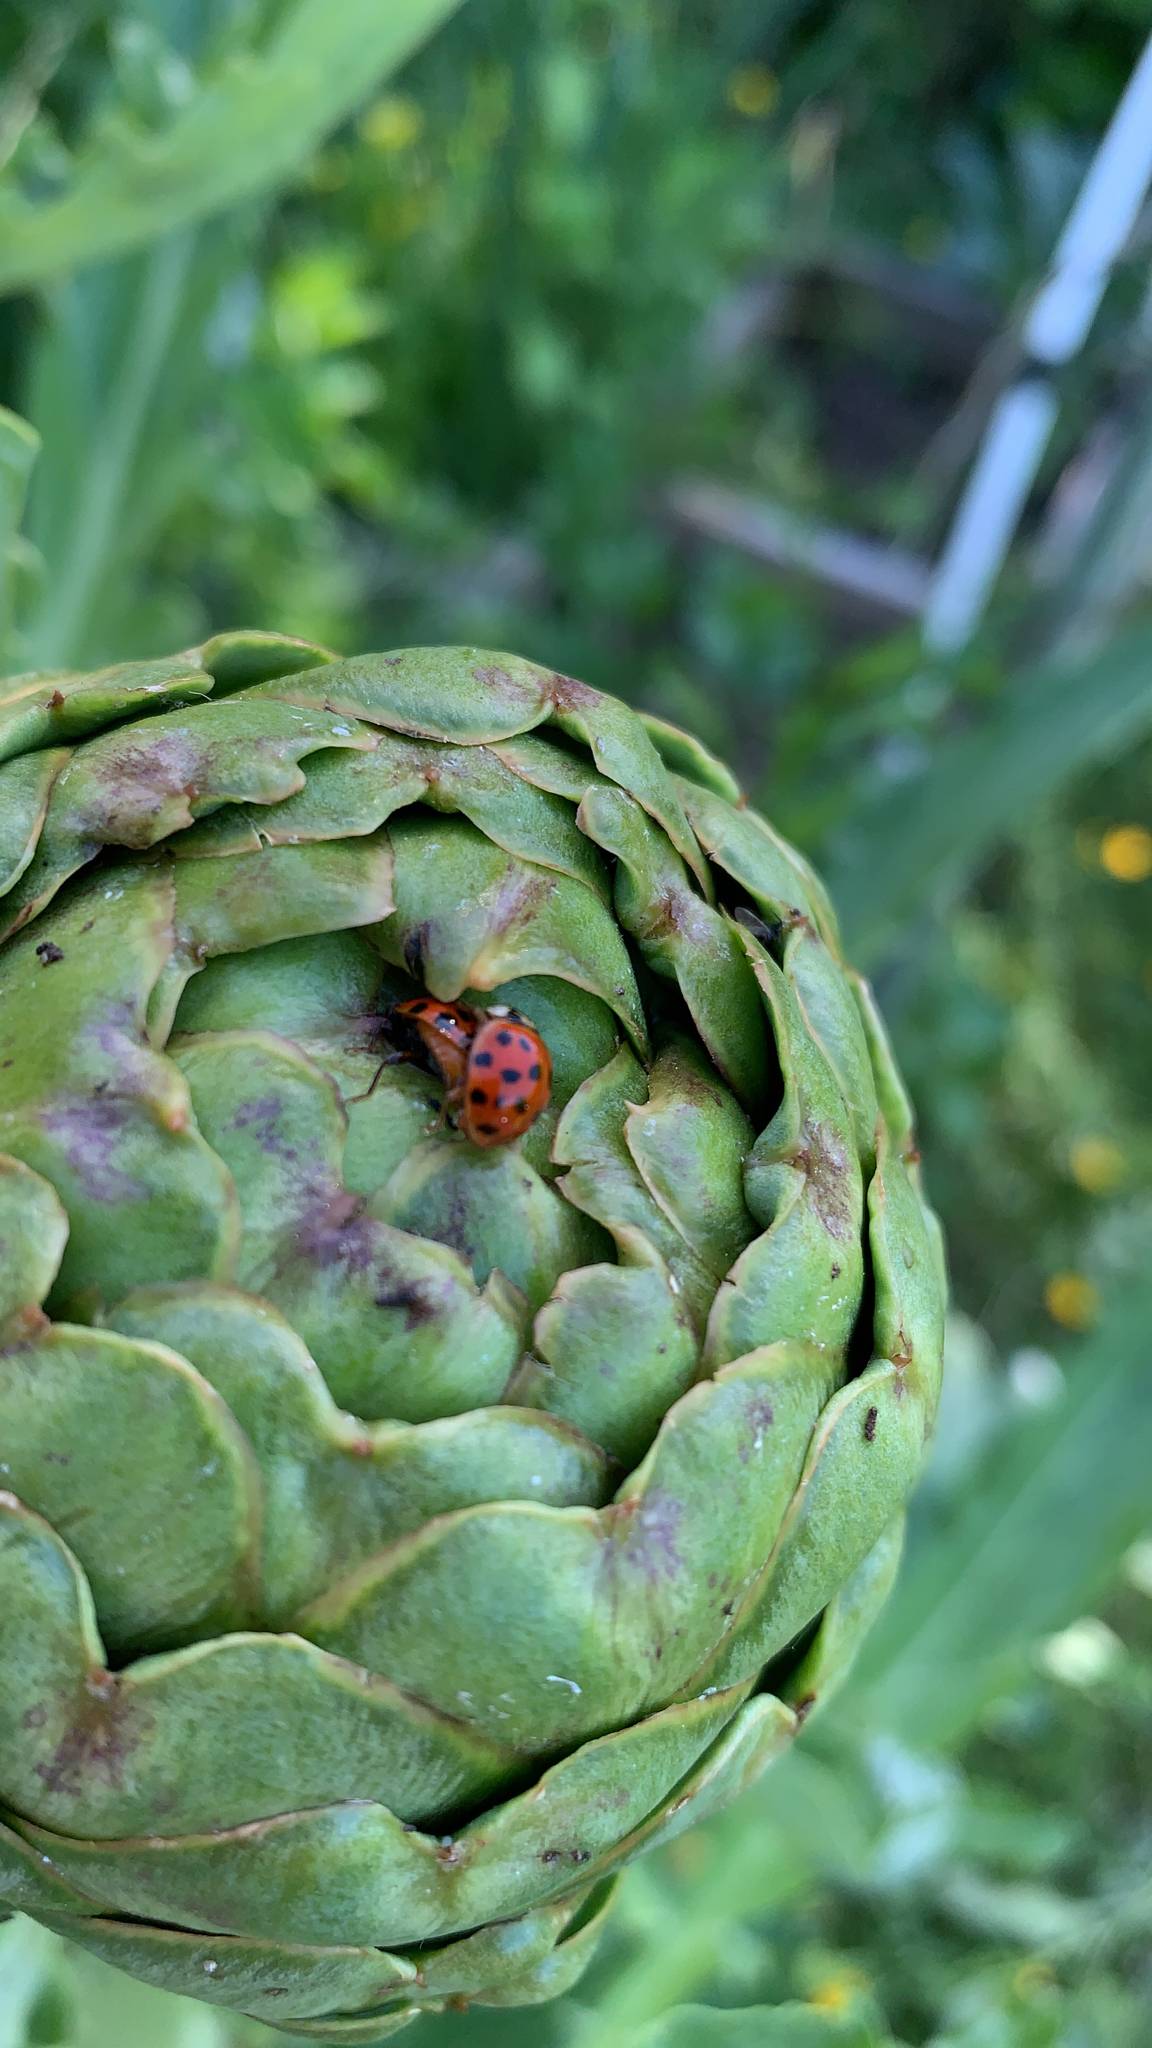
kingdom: Animalia
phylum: Arthropoda
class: Insecta
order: Coleoptera
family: Coccinellidae
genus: Harmonia
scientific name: Harmonia axyridis
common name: Harlequin ladybird
